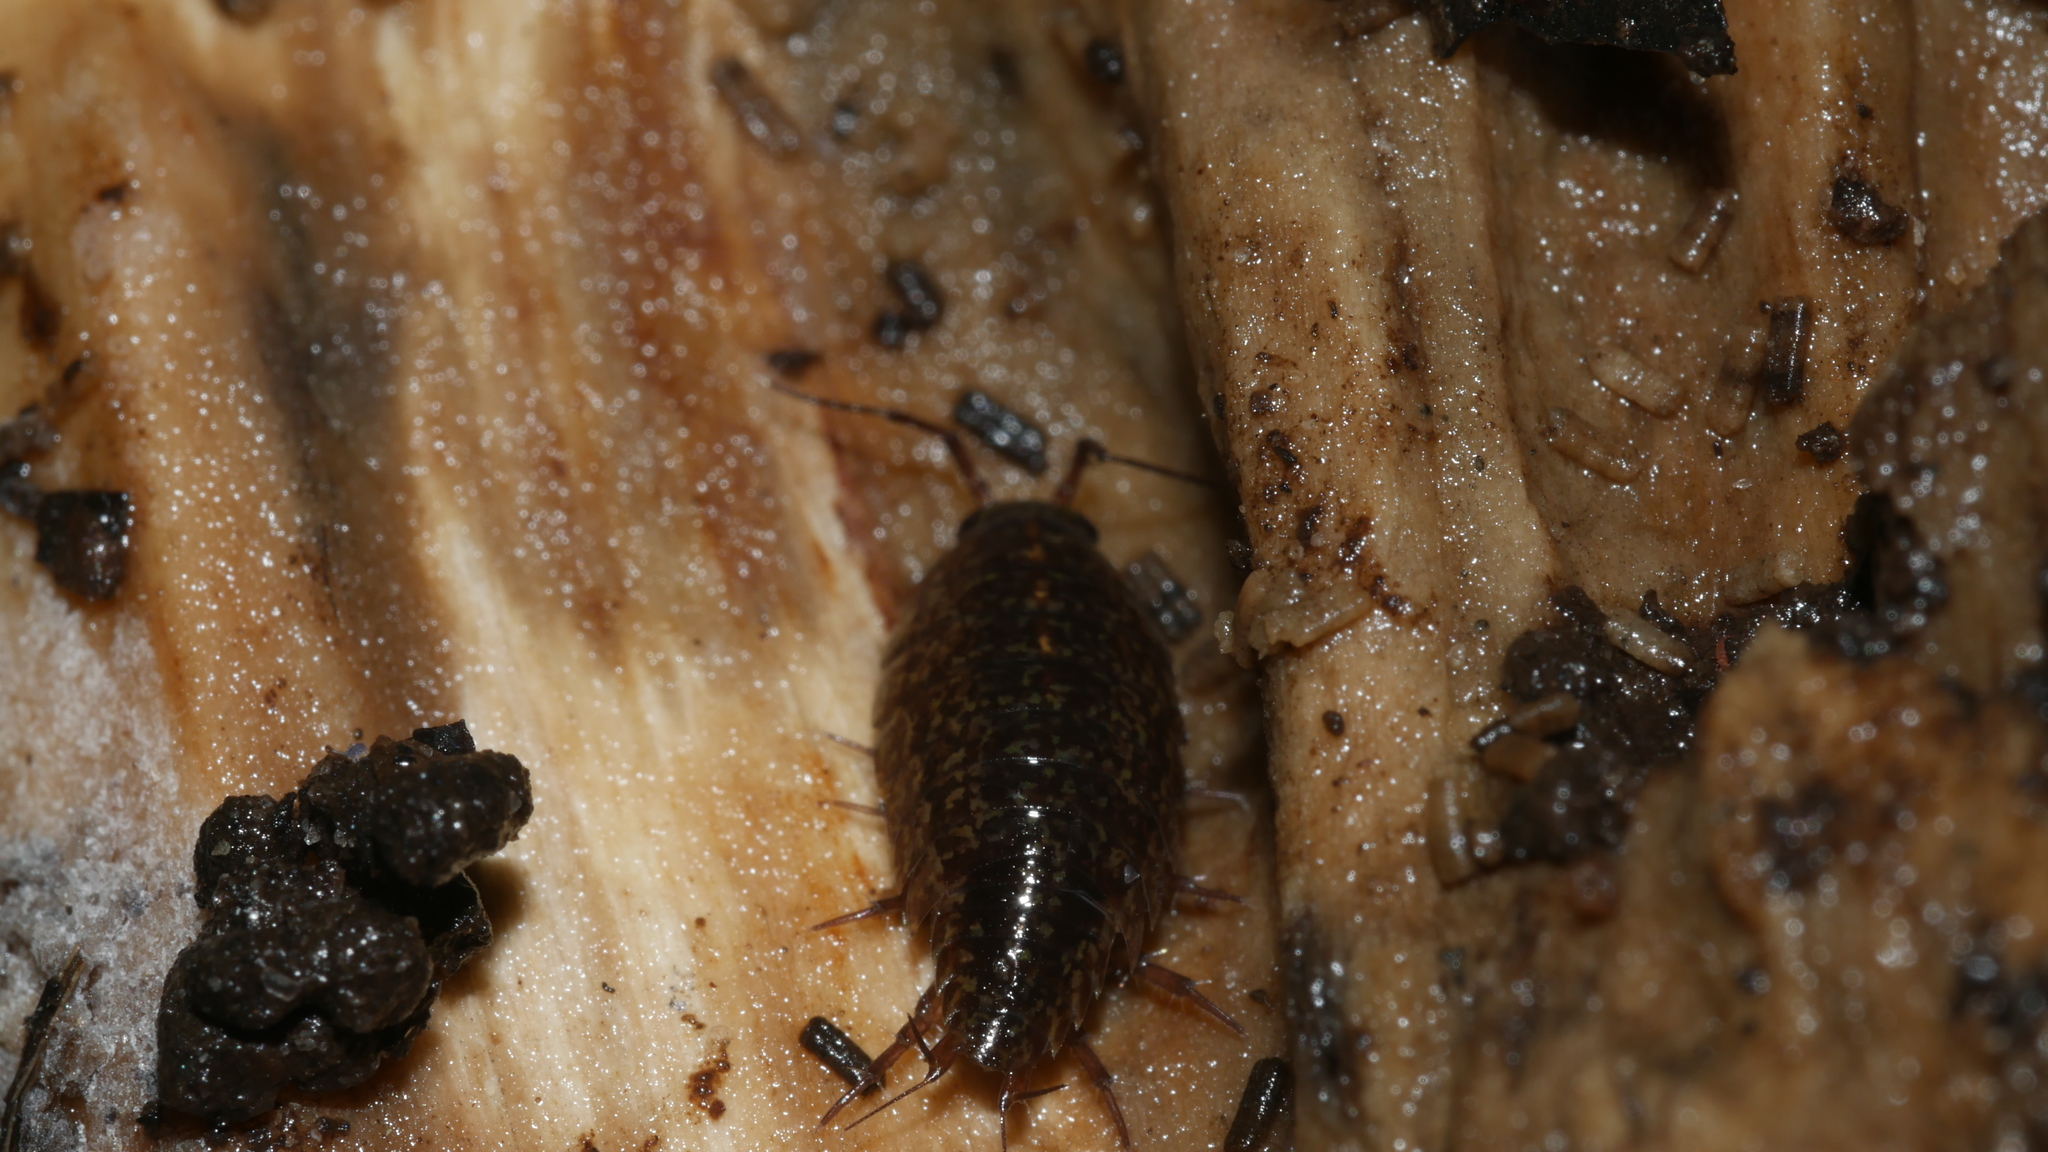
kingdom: Animalia
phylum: Arthropoda
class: Malacostraca
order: Isopoda
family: Ligiidae
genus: Ligidium
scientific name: Ligidium elrodii
